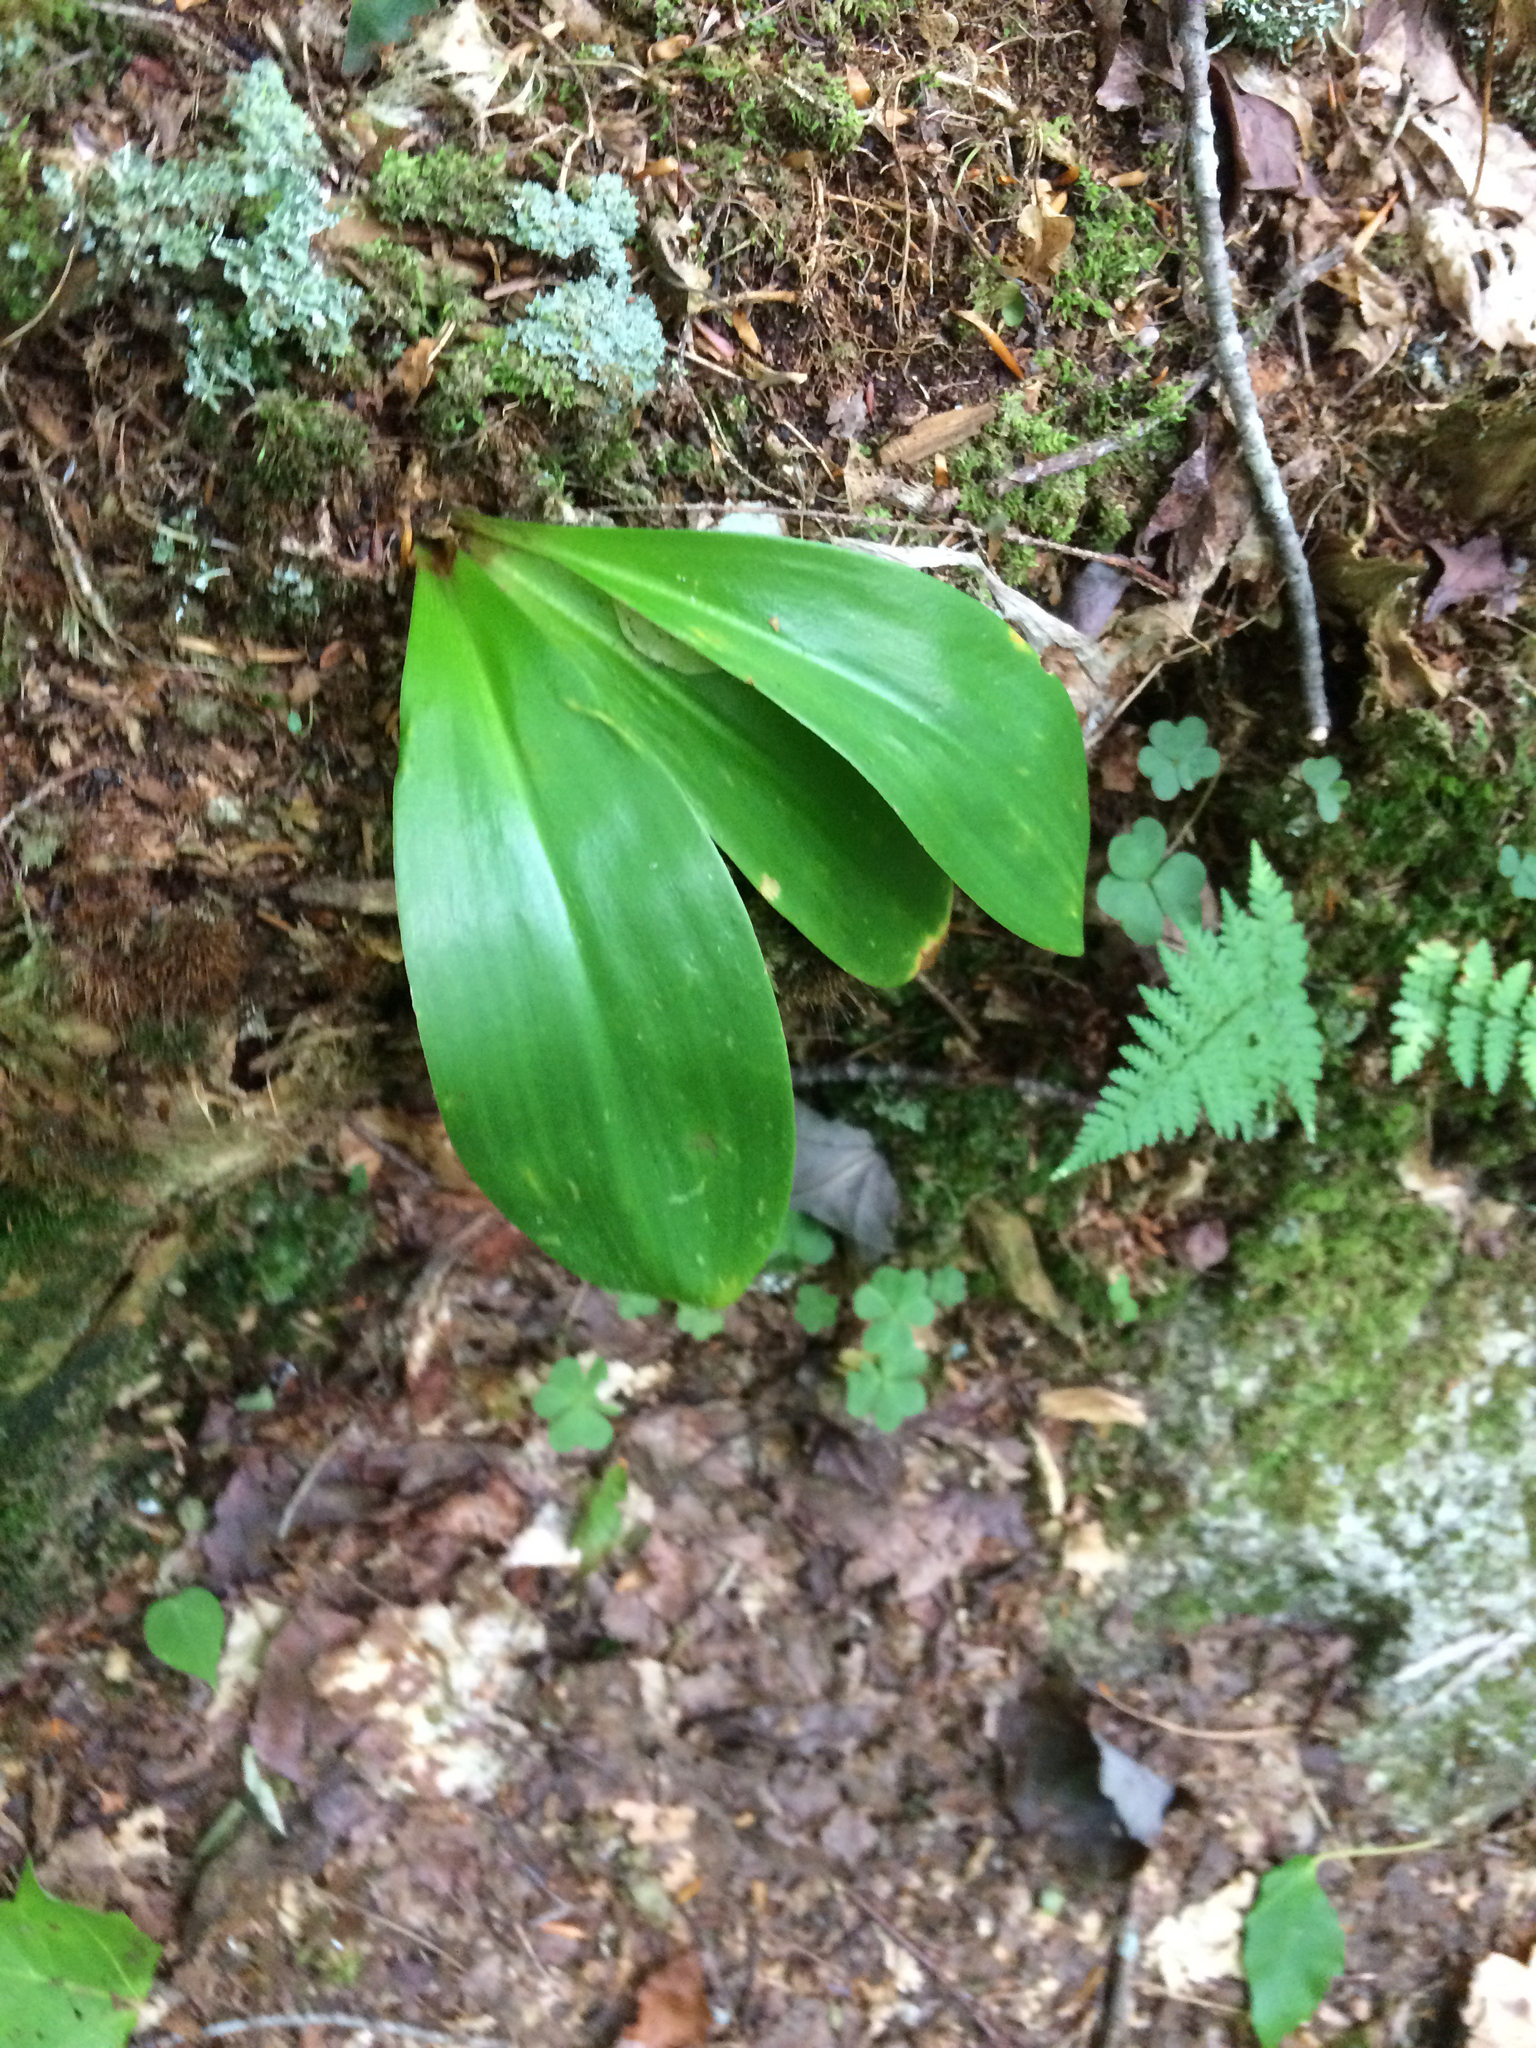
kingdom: Plantae
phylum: Tracheophyta
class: Liliopsida
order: Liliales
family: Liliaceae
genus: Clintonia
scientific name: Clintonia borealis
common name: Yellow clintonia
